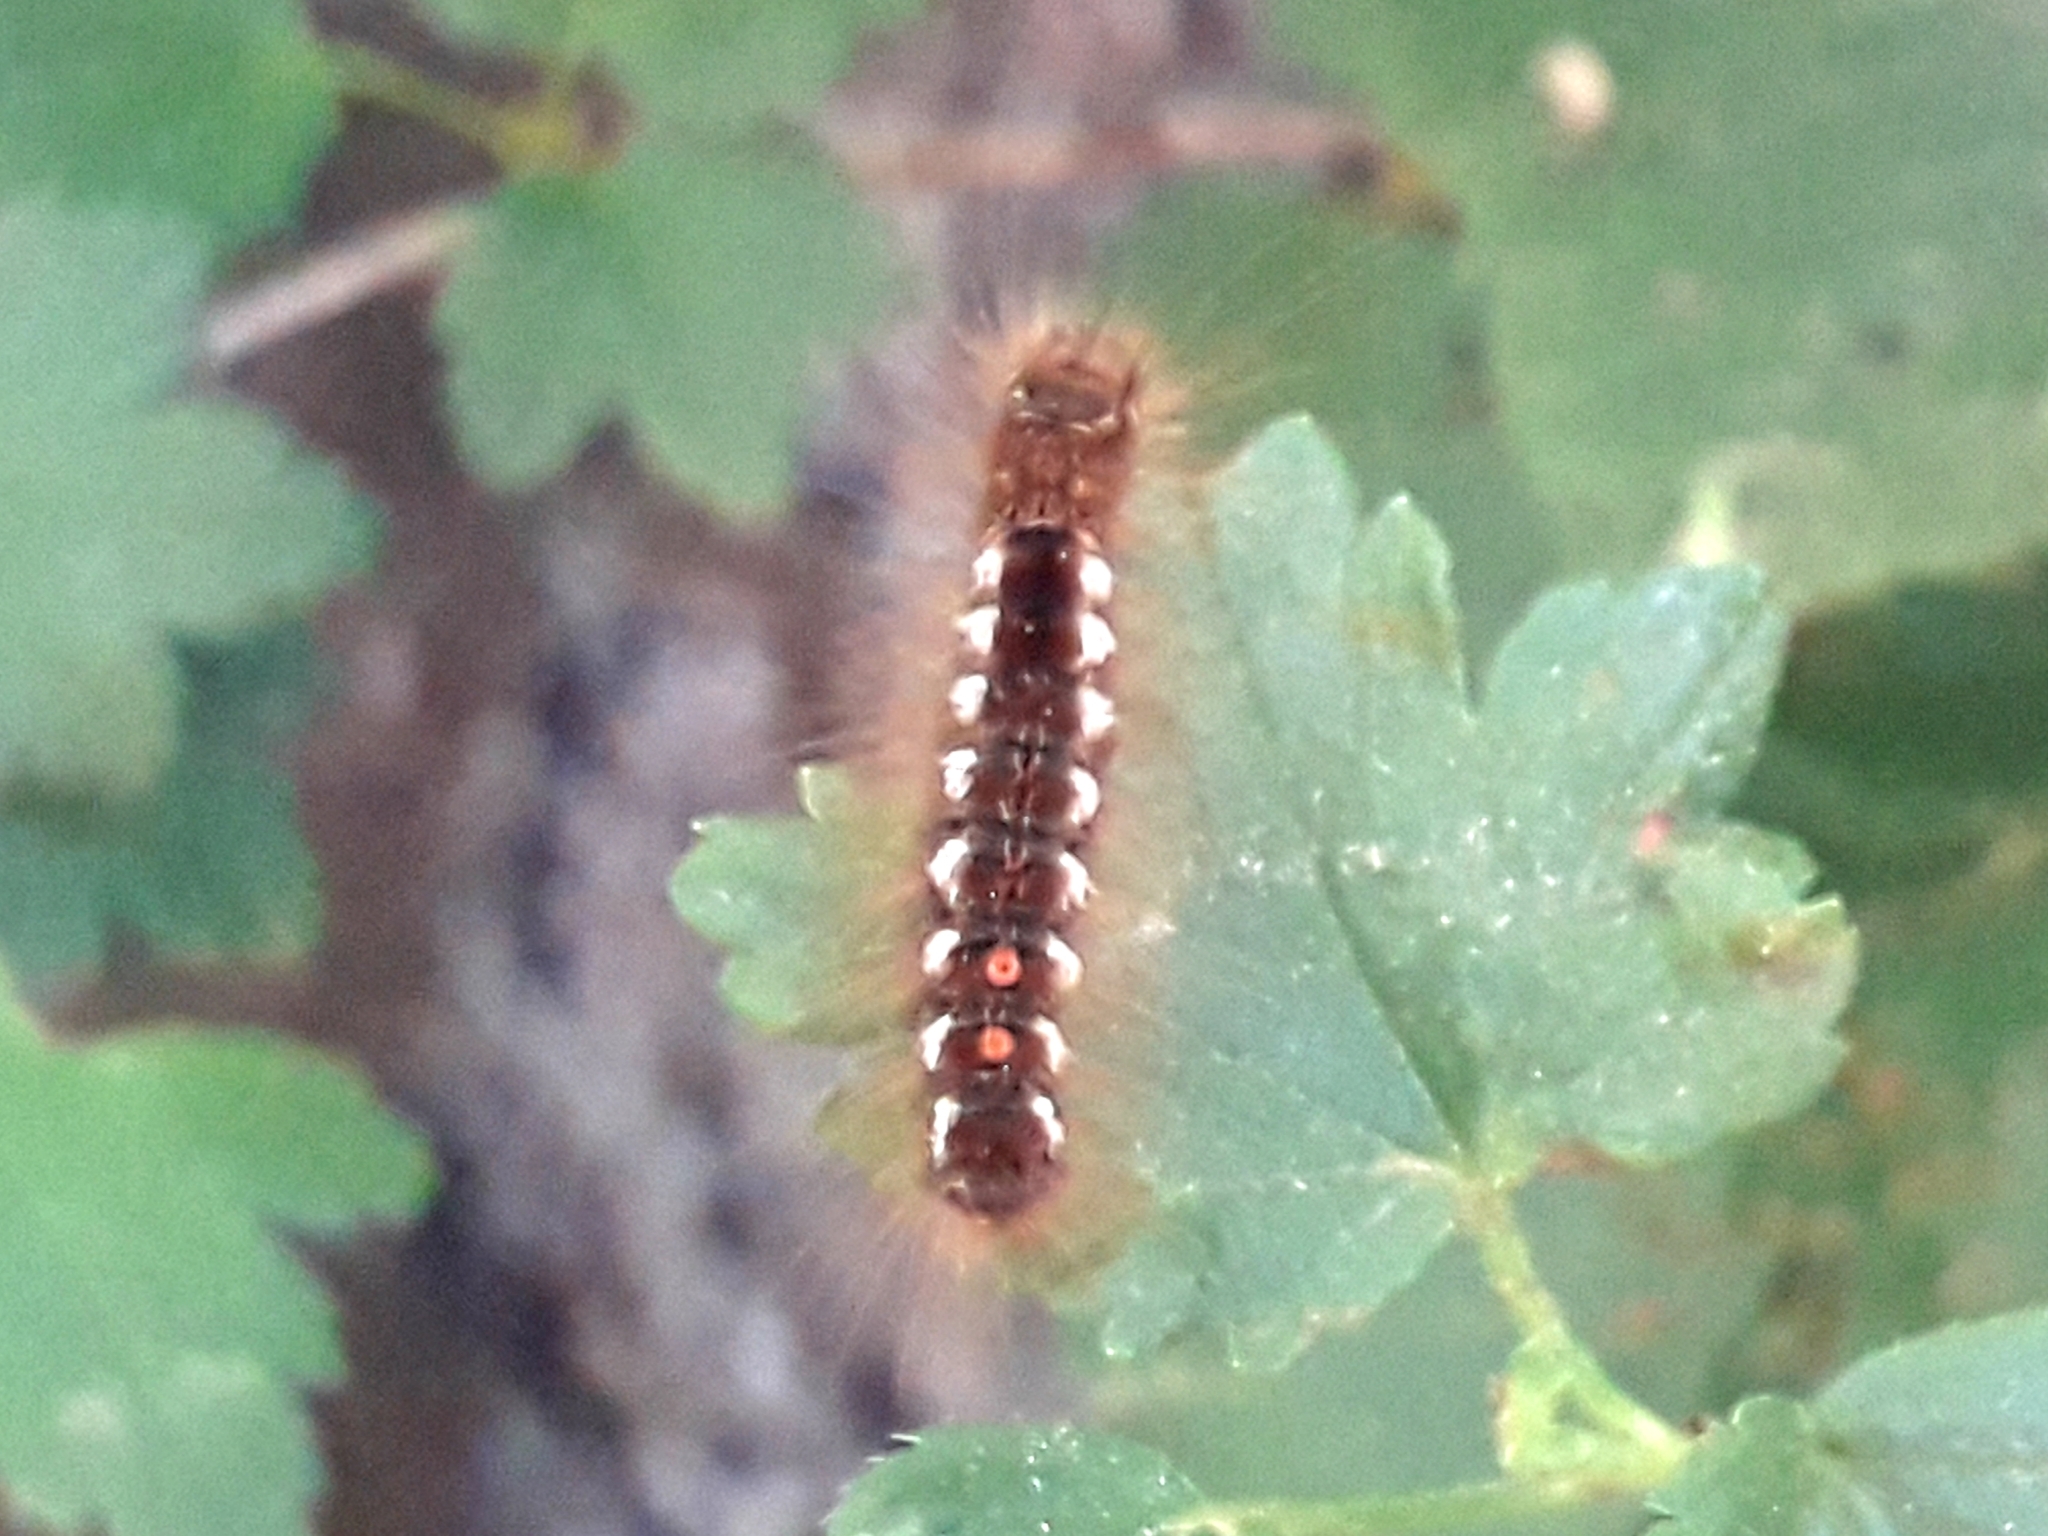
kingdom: Animalia
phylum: Arthropoda
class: Insecta
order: Lepidoptera
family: Erebidae
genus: Euproctis
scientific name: Euproctis chrysorrhoea
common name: Brown-tail
